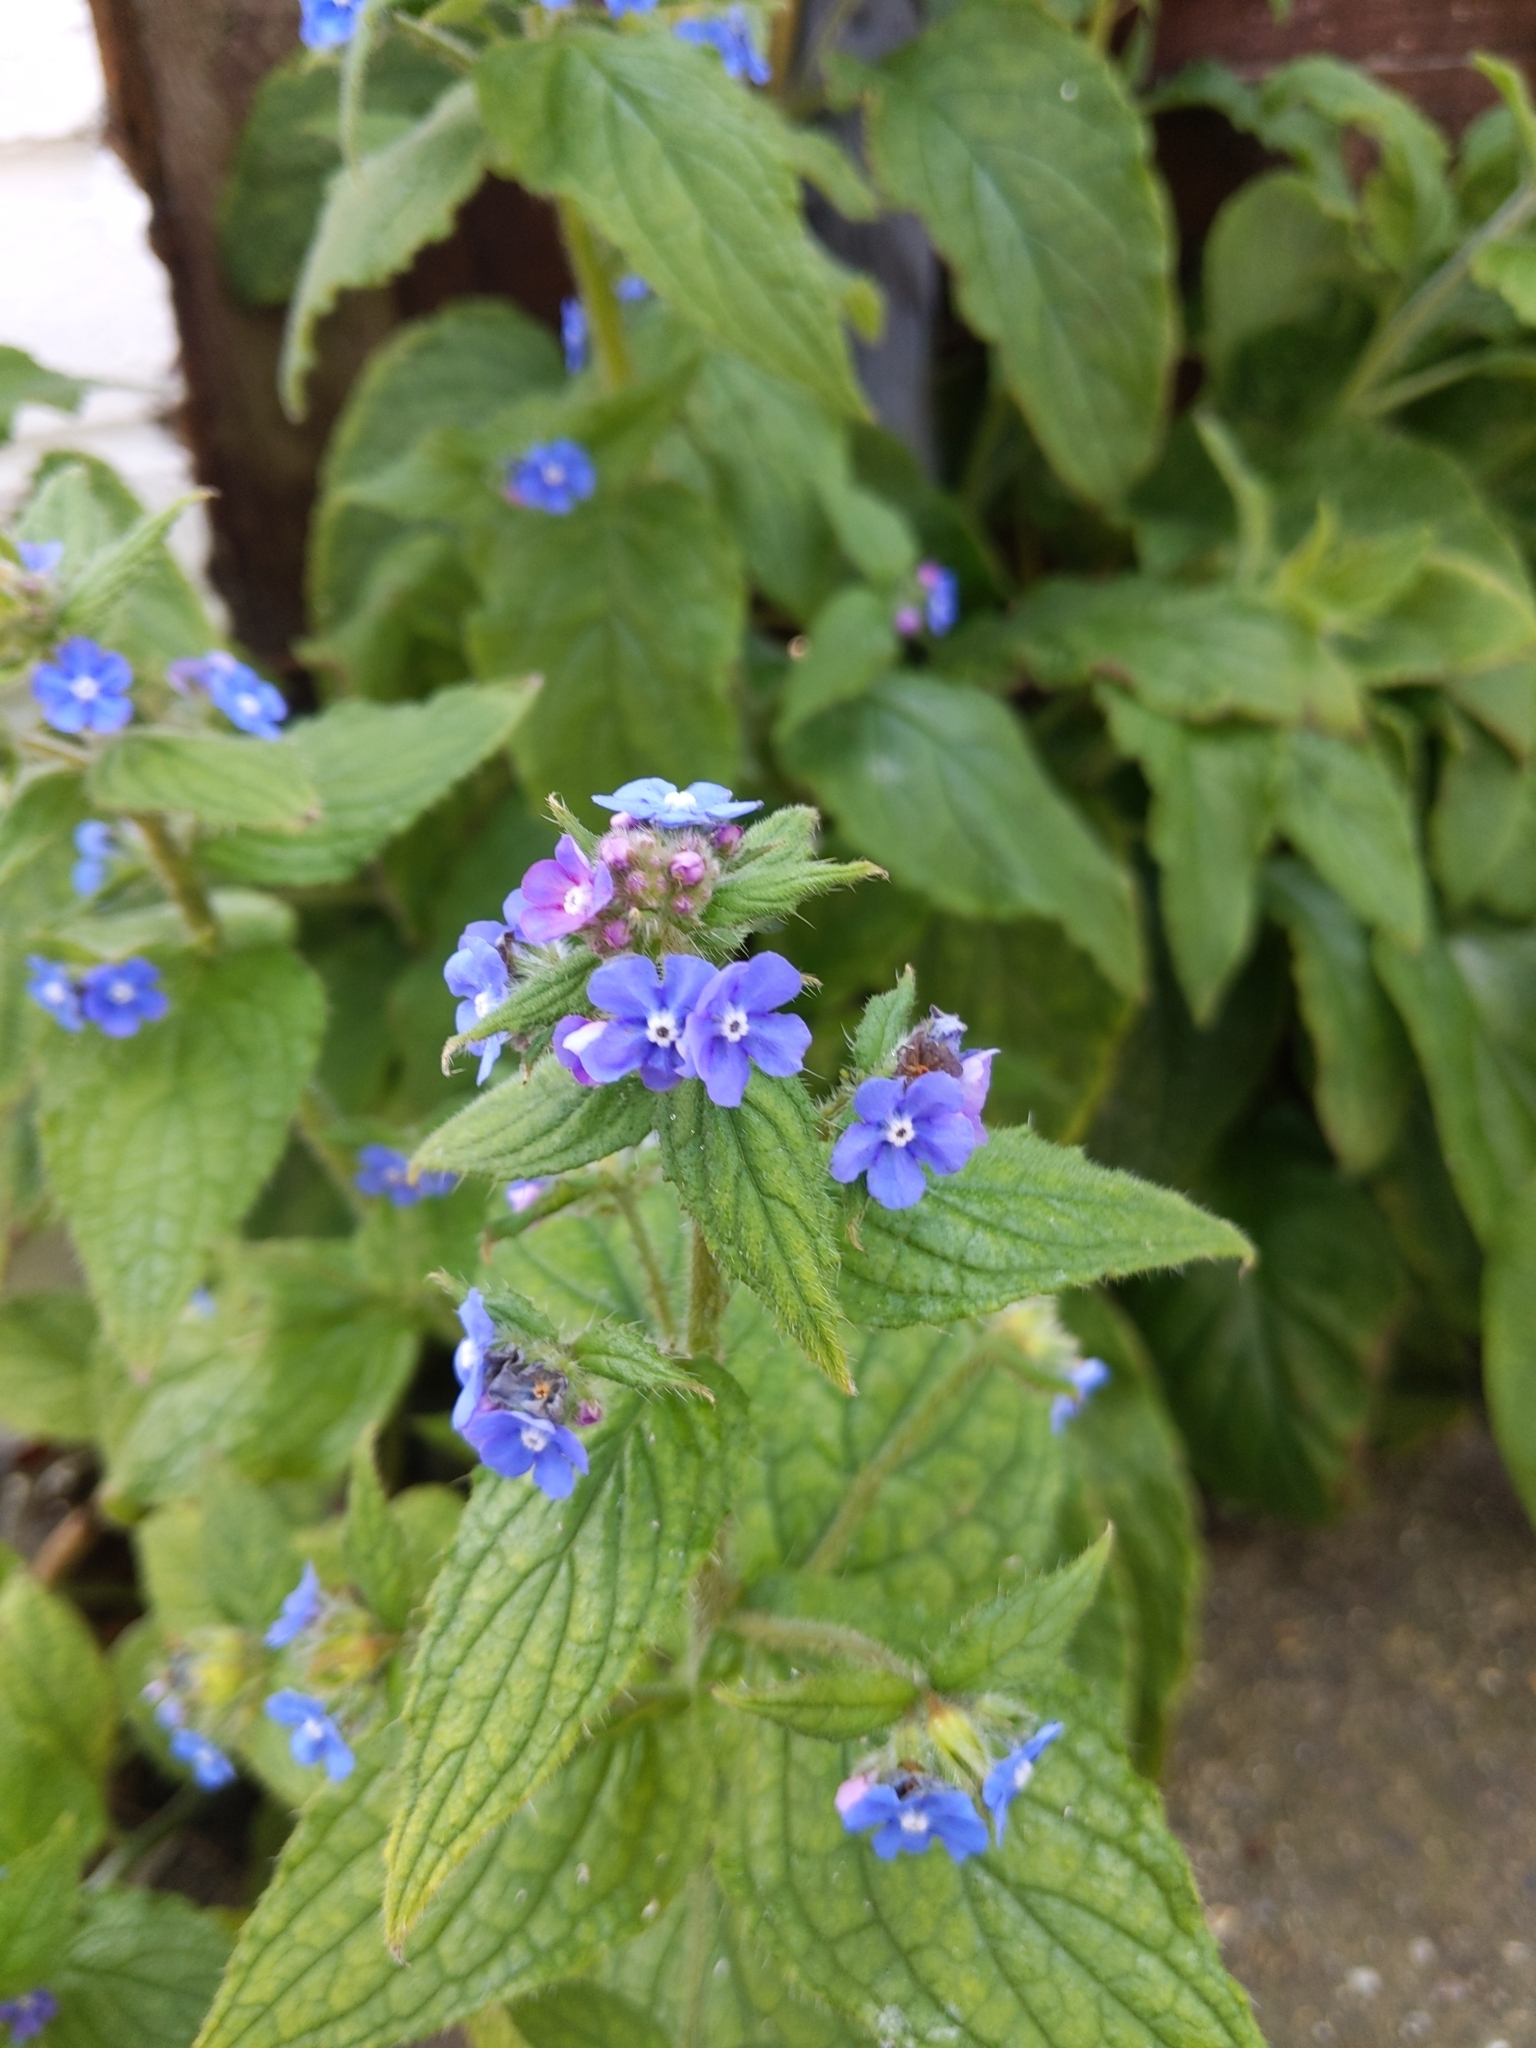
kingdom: Plantae
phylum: Tracheophyta
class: Magnoliopsida
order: Boraginales
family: Boraginaceae
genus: Pentaglottis
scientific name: Pentaglottis sempervirens
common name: Green alkanet
